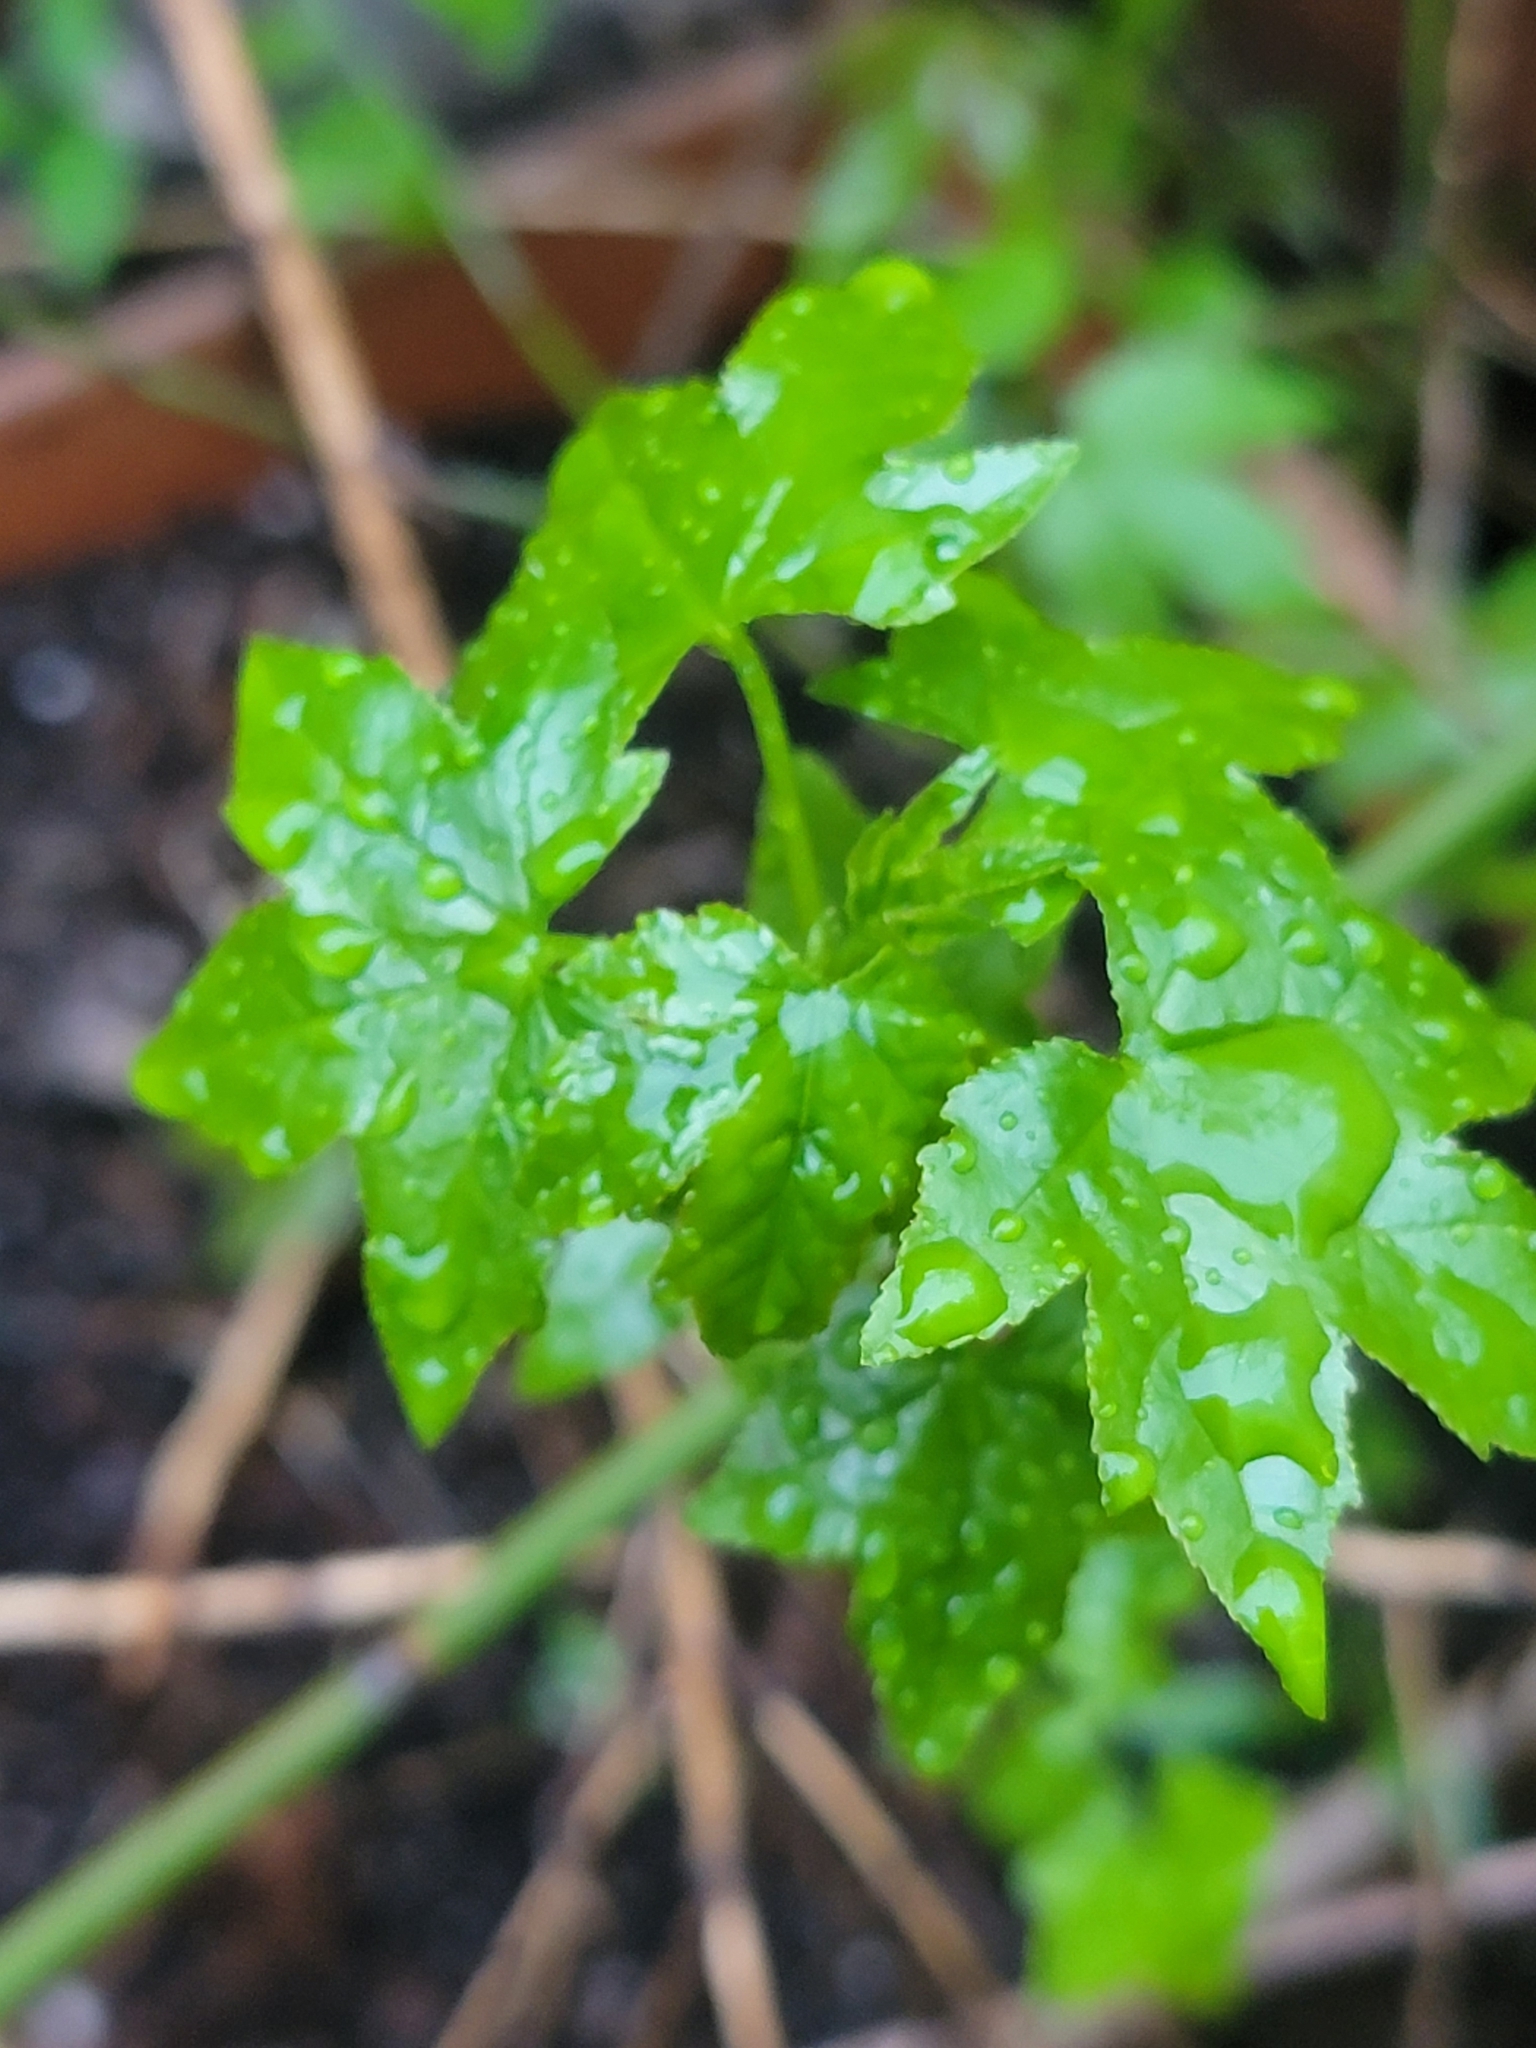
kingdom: Plantae
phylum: Tracheophyta
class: Magnoliopsida
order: Saxifragales
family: Altingiaceae
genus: Liquidambar
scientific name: Liquidambar styraciflua
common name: Sweet gum
